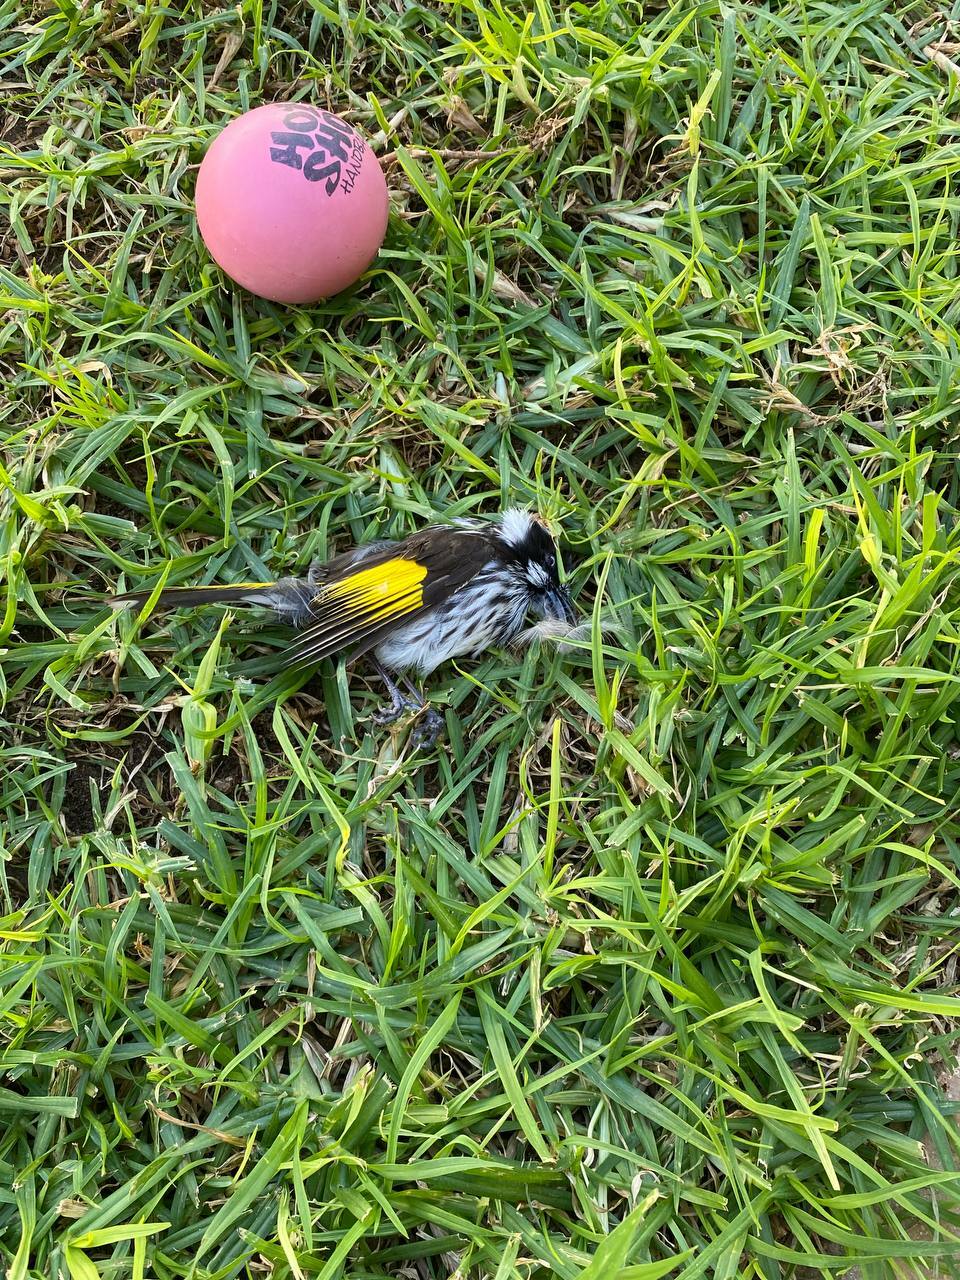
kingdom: Animalia
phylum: Chordata
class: Aves
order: Passeriformes
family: Meliphagidae
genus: Phylidonyris
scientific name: Phylidonyris novaehollandiae
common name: New holland honeyeater
